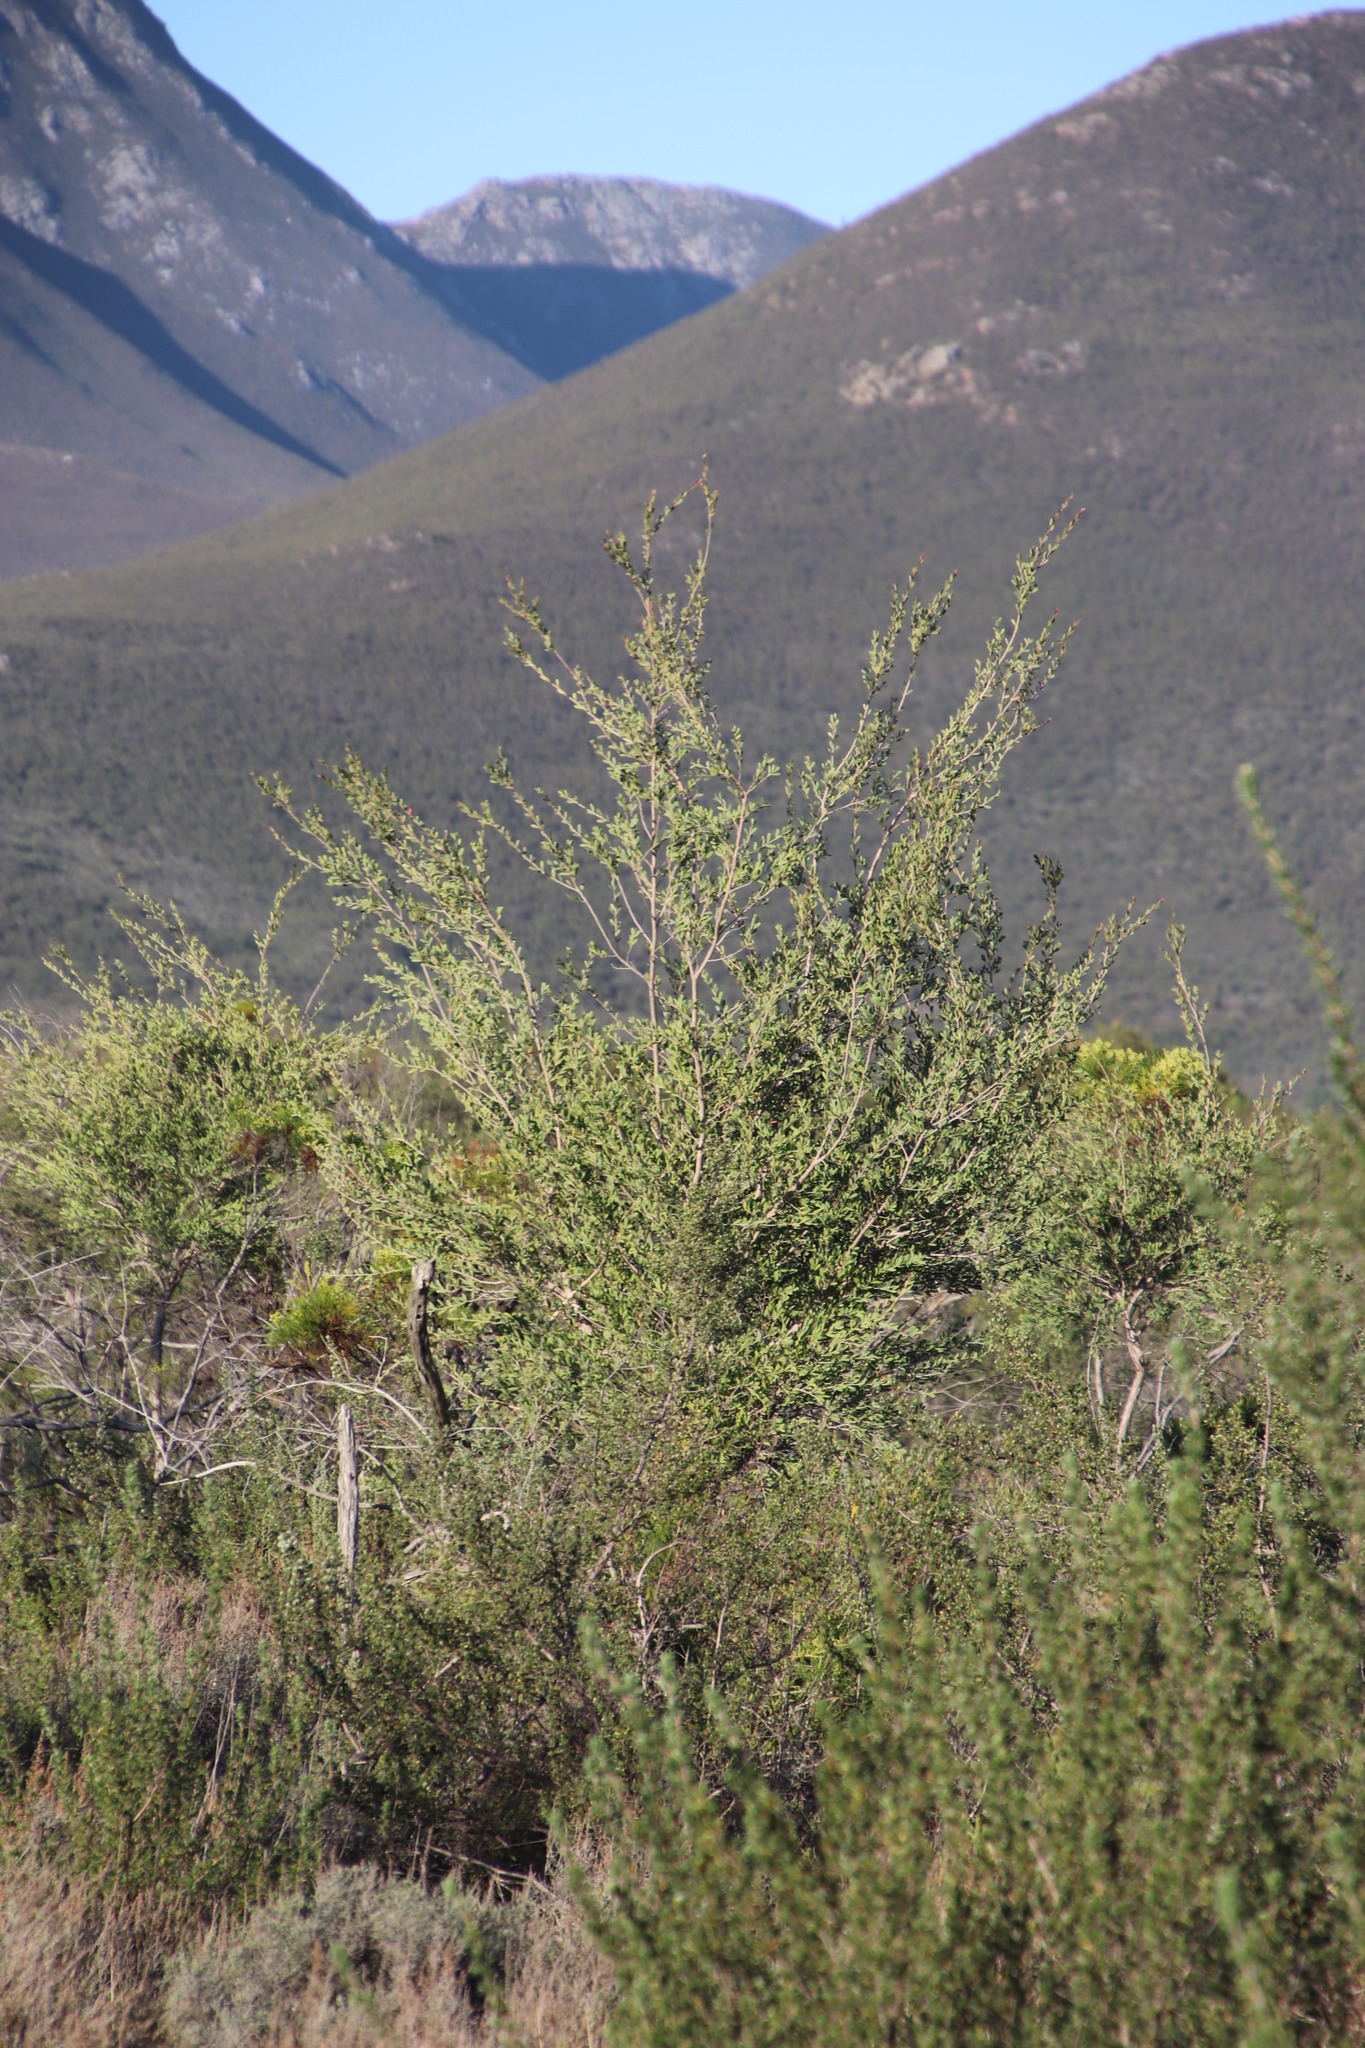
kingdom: Plantae
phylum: Tracheophyta
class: Magnoliopsida
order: Myrtales
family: Myrtaceae
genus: Leptospermum
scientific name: Leptospermum laevigatum
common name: Australian teatree
